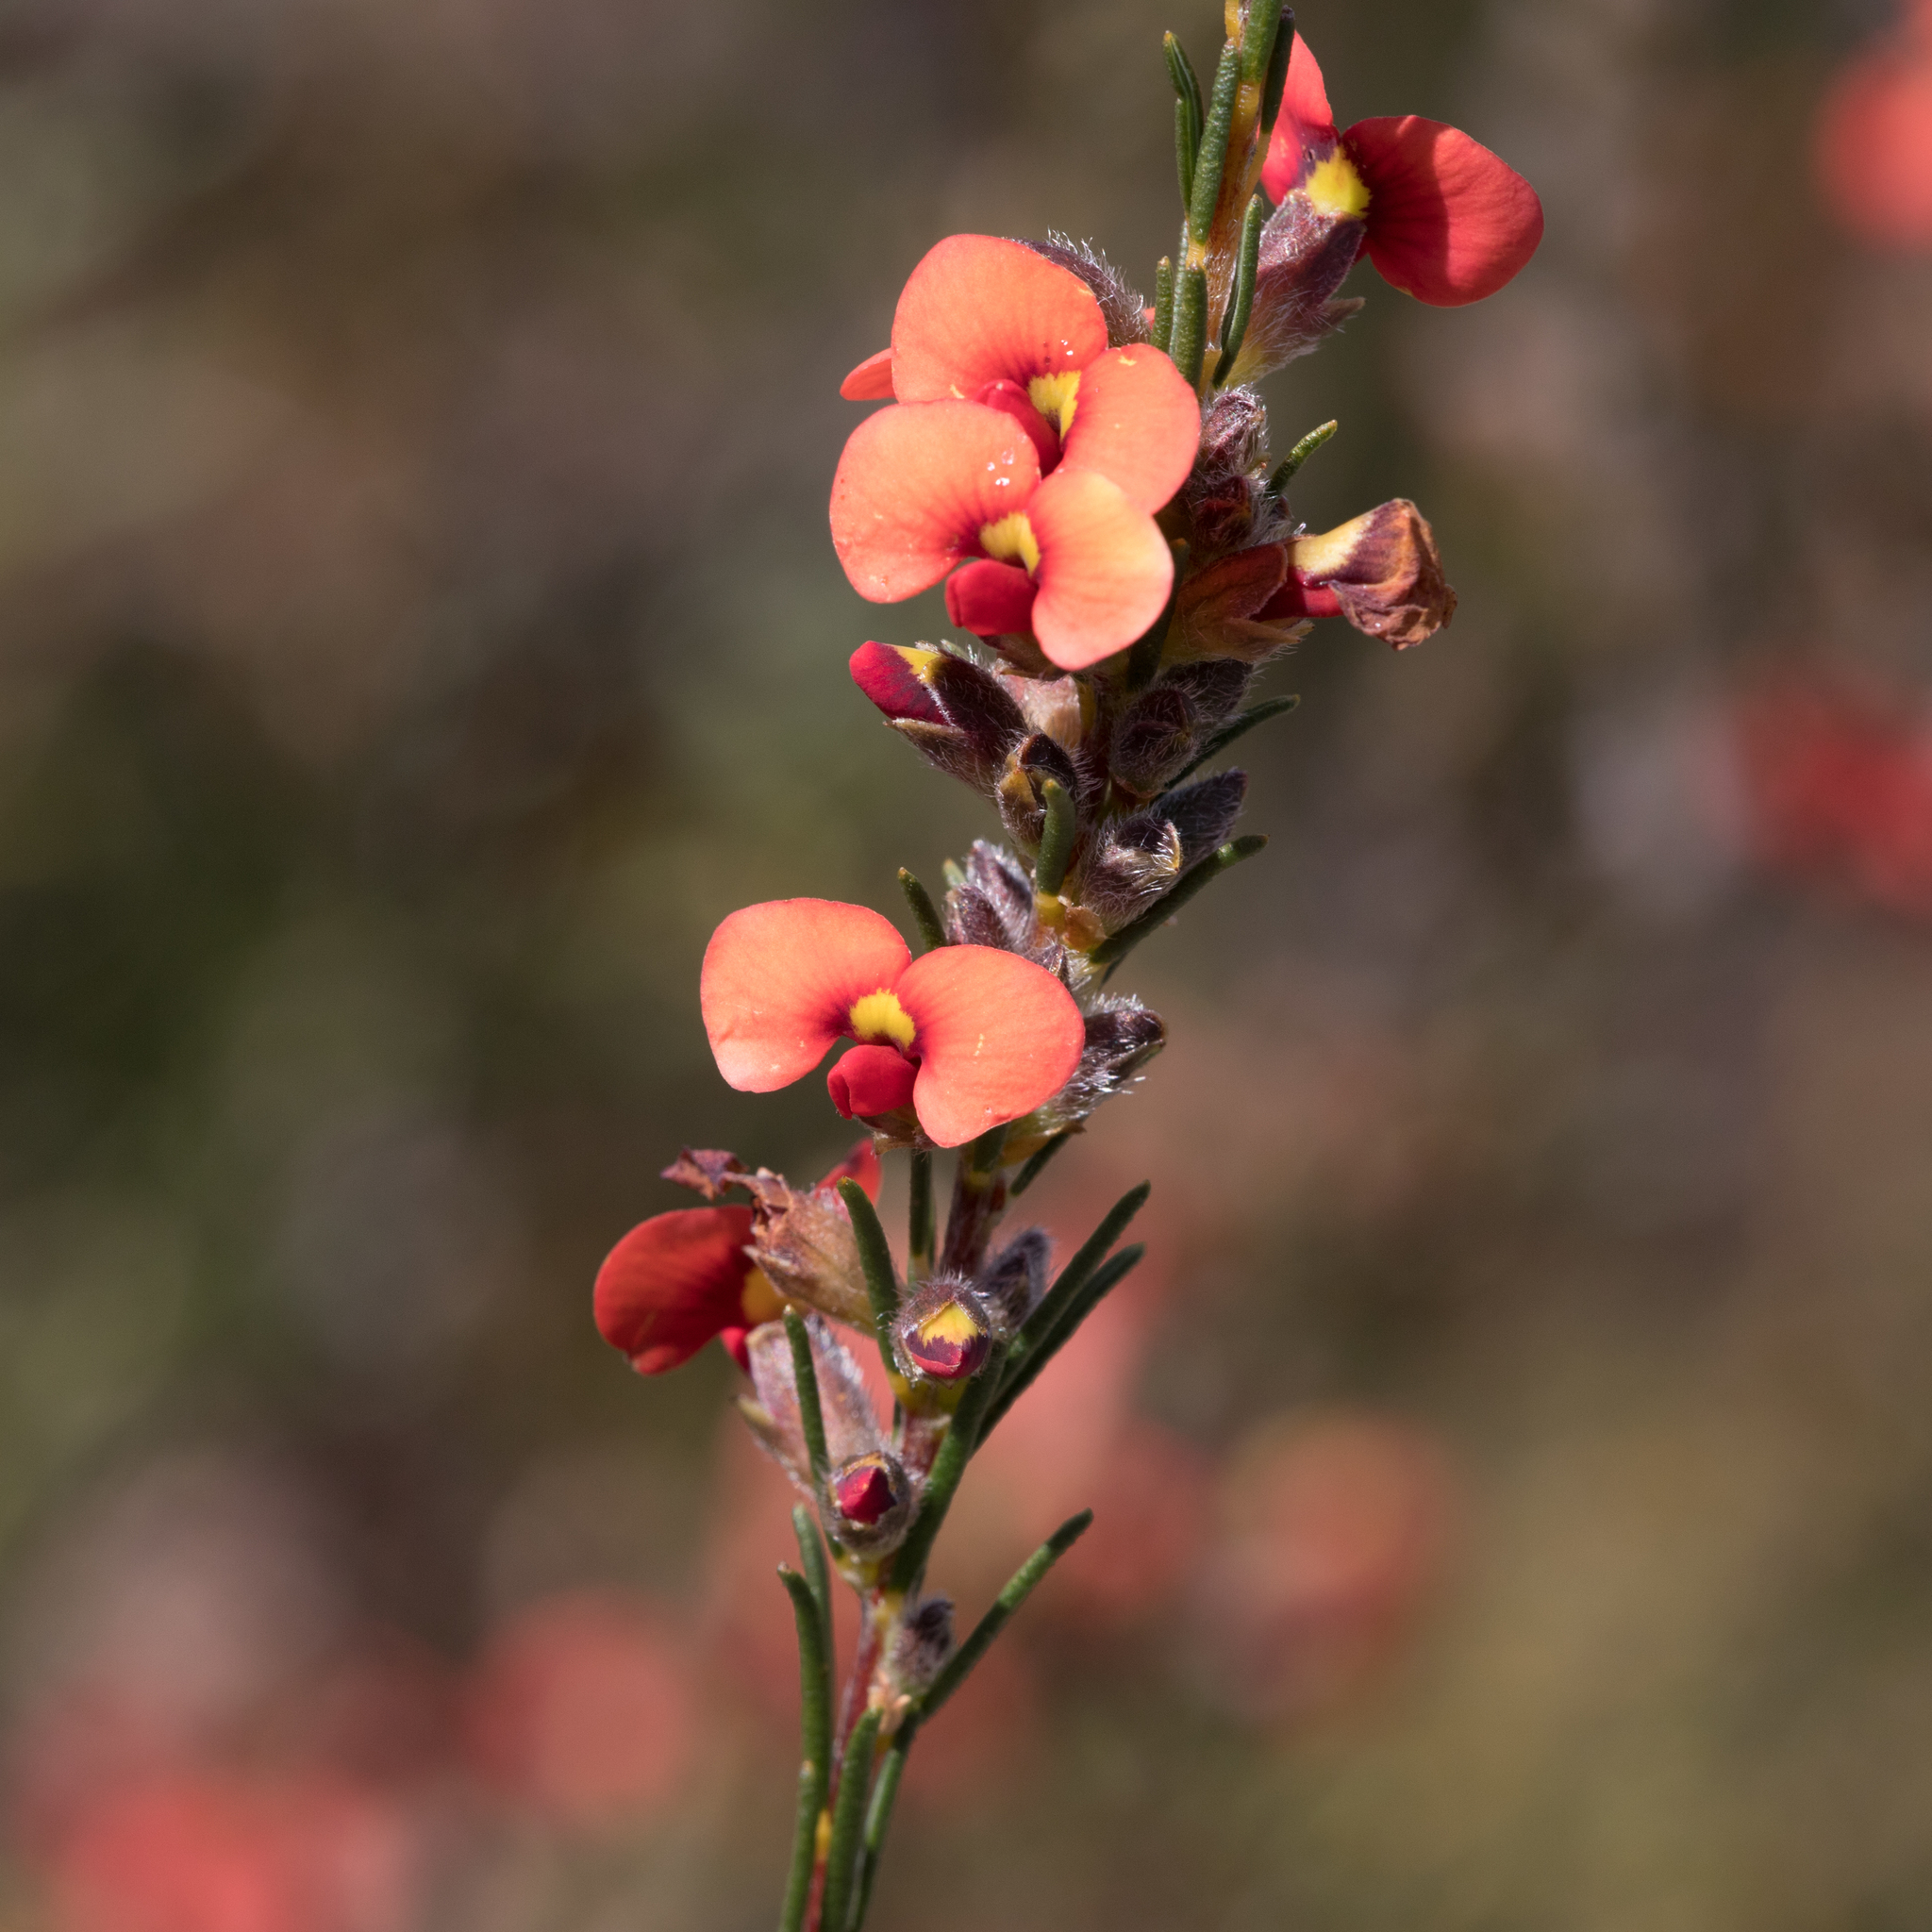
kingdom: Plantae
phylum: Tracheophyta
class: Magnoliopsida
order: Fabales
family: Fabaceae
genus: Dillwynia
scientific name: Dillwynia sericea
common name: Showy parrot-pea
